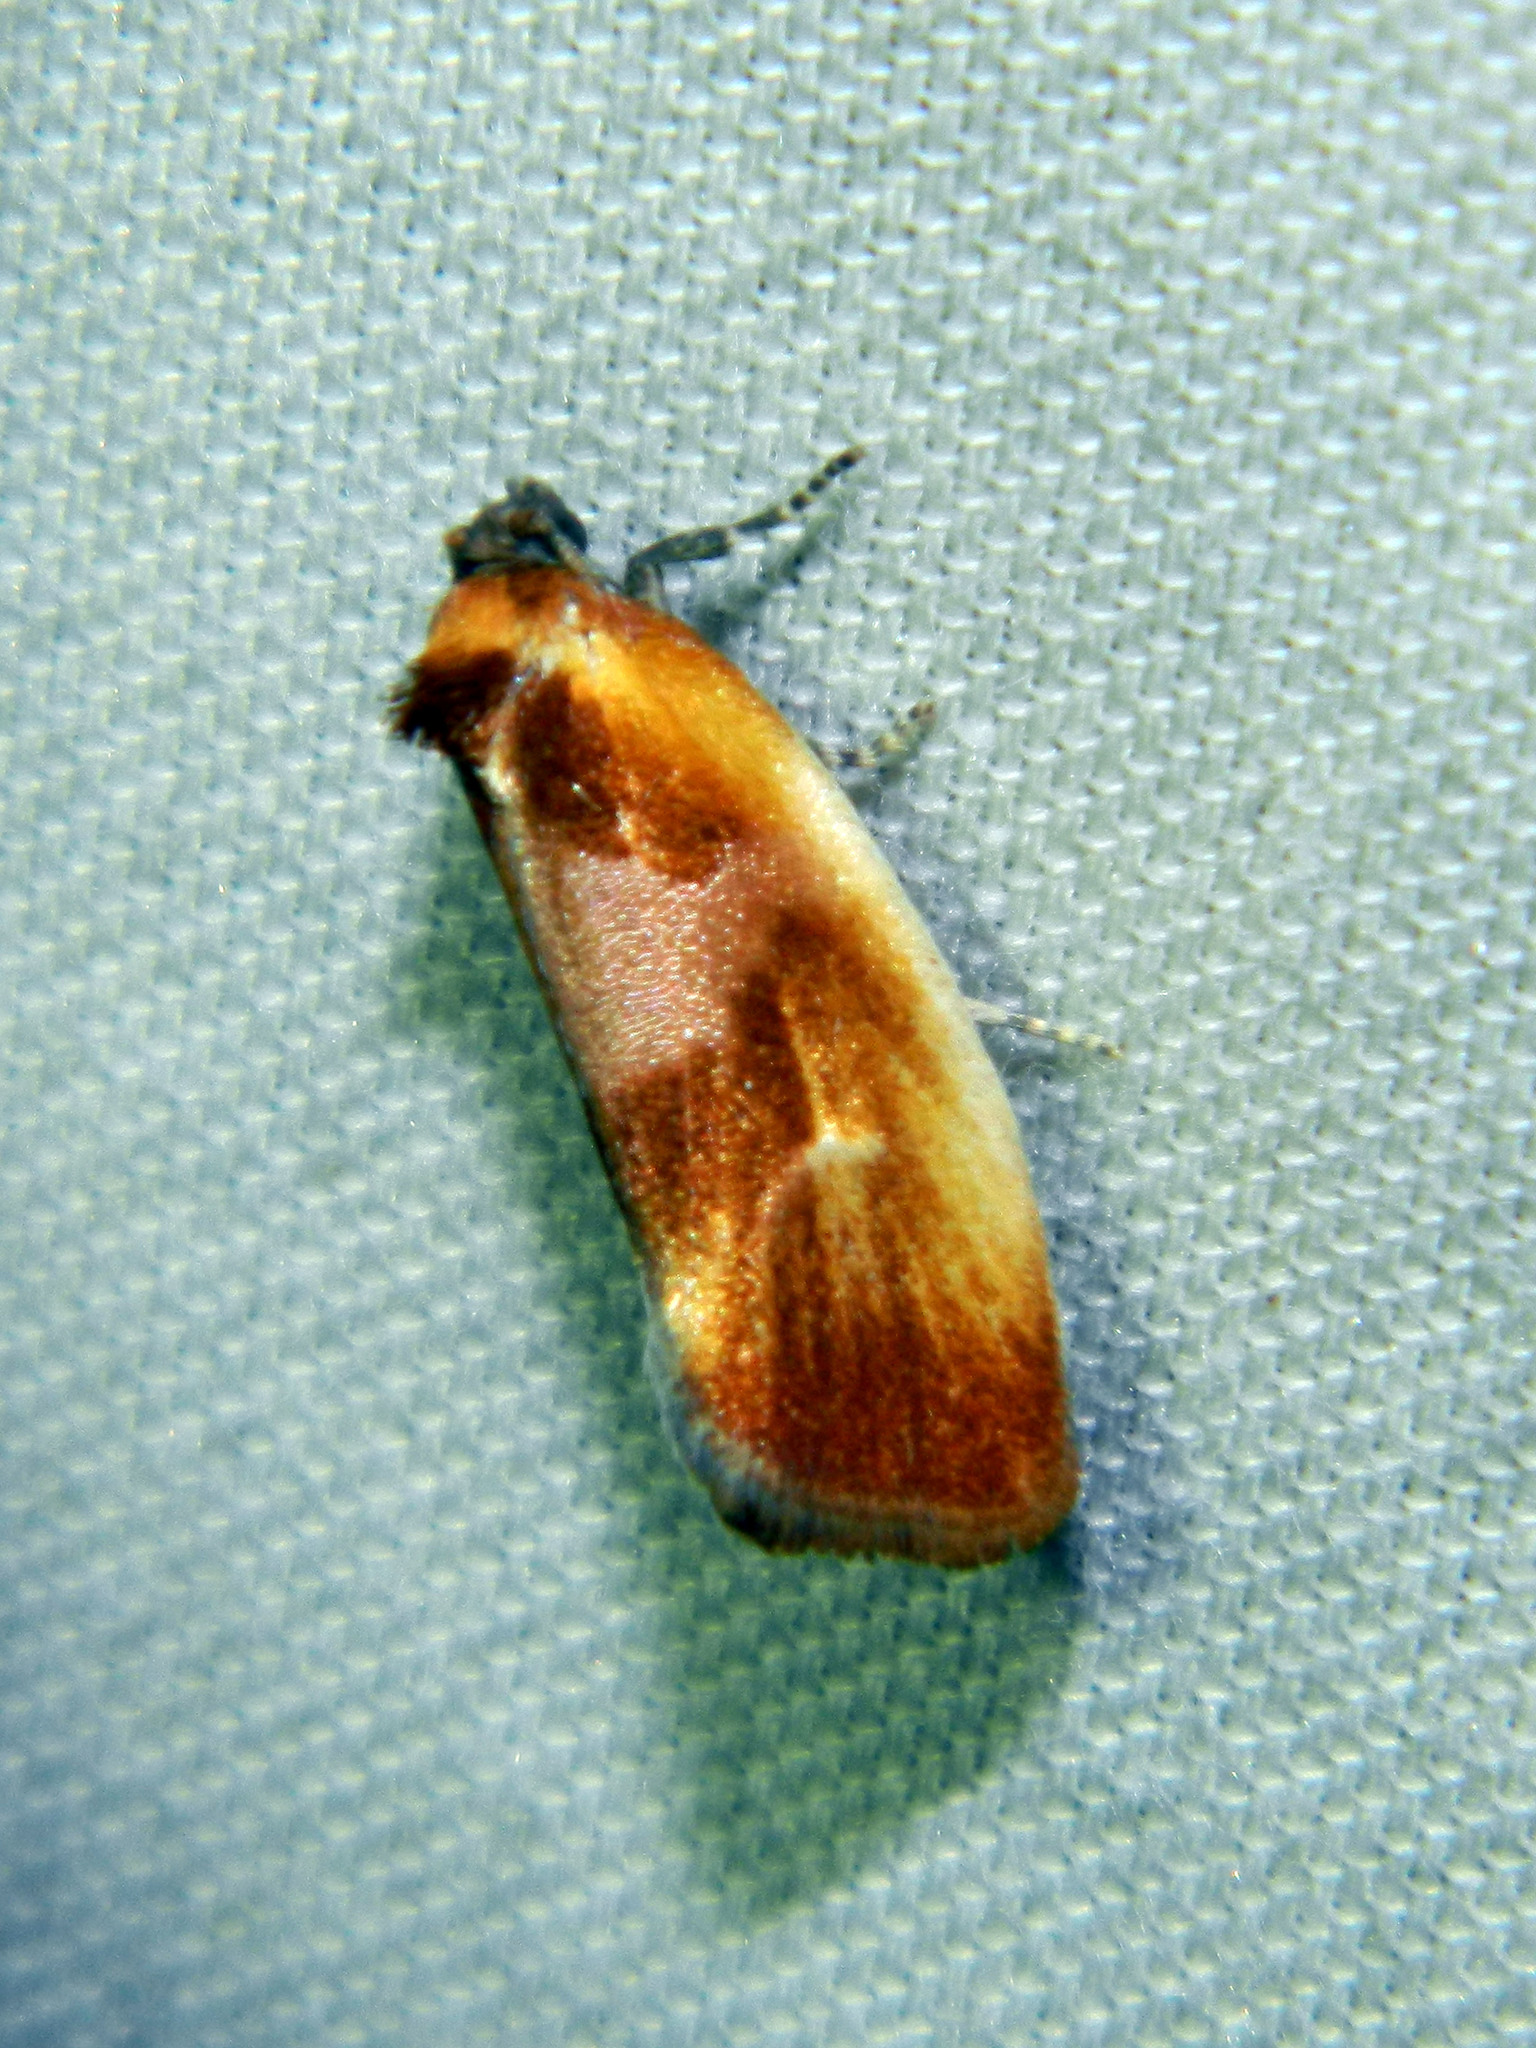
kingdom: Animalia
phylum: Arthropoda
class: Insecta
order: Lepidoptera
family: Tortricidae
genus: Eulia
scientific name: Eulia ministrana
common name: Brassy twist
